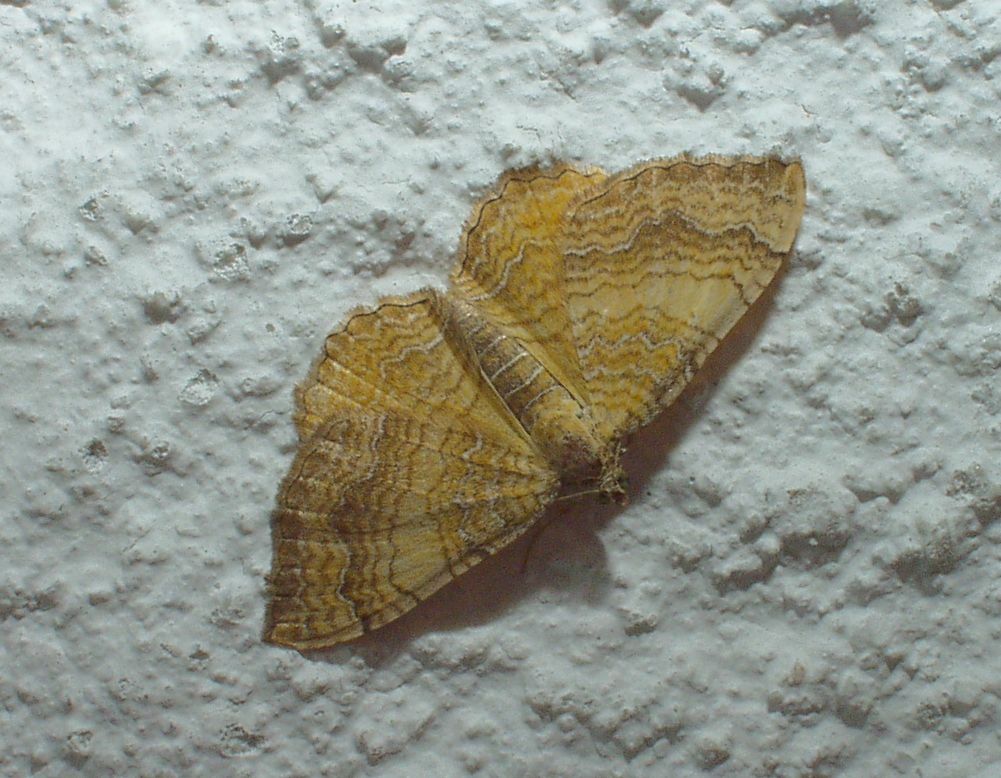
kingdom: Animalia
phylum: Arthropoda
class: Insecta
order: Lepidoptera
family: Geometridae
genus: Camptogramma
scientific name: Camptogramma bilineata
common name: Yellow shell
